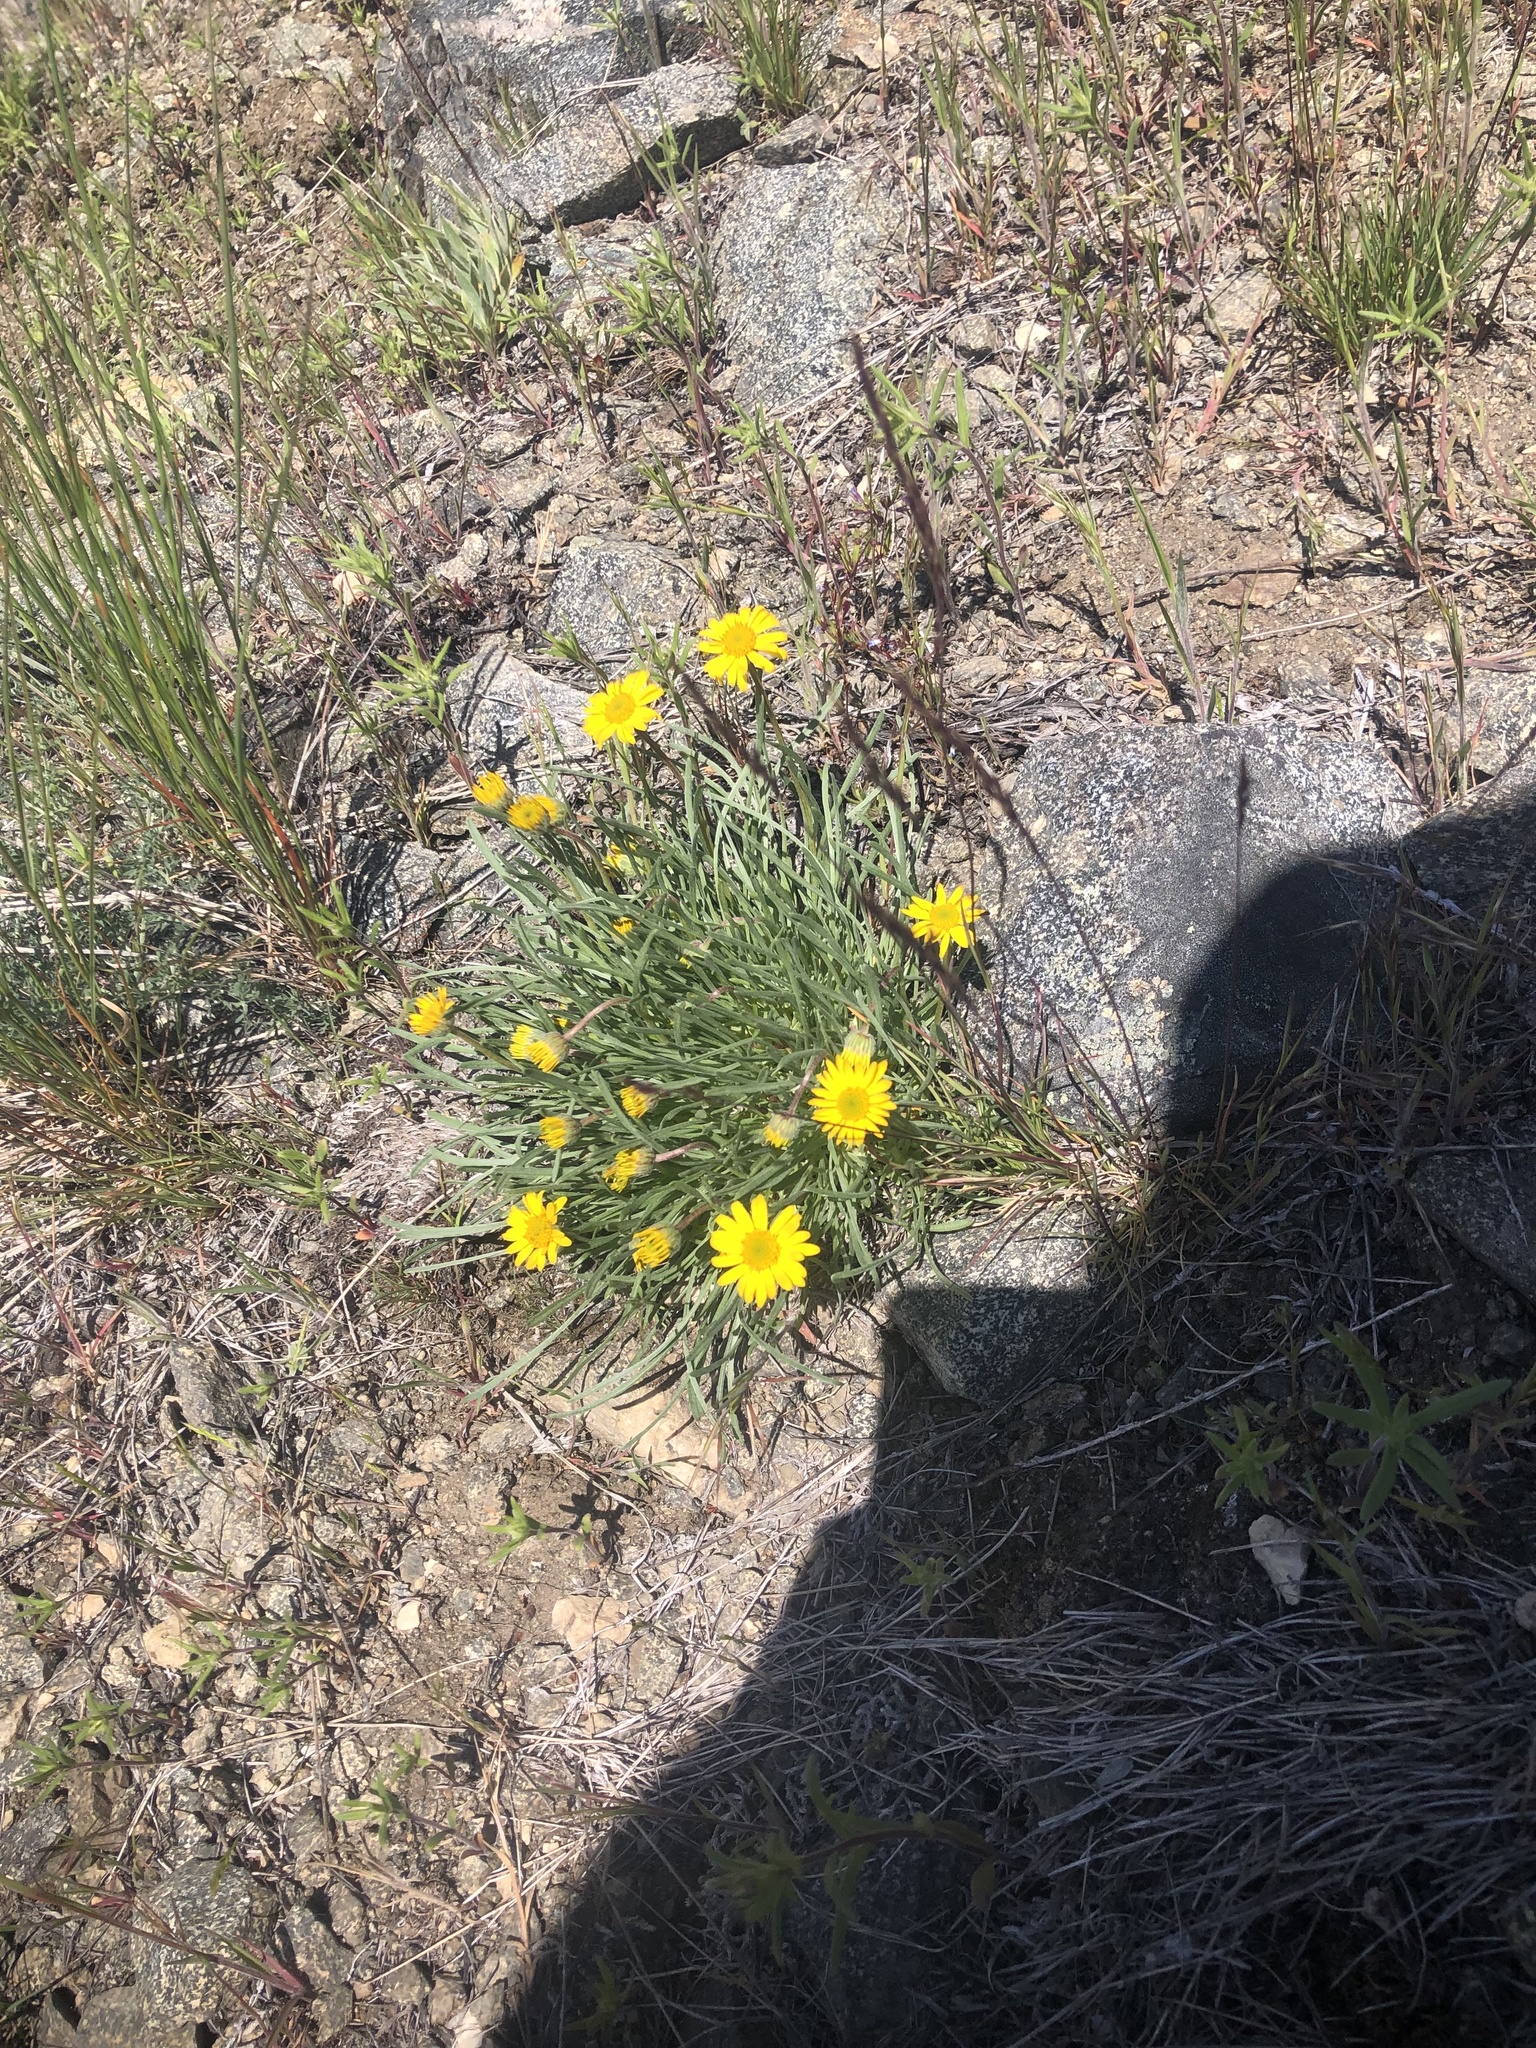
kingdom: Plantae
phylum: Tracheophyta
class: Magnoliopsida
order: Asterales
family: Asteraceae
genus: Erigeron
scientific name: Erigeron linearis
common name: Desert yellow fleabane
